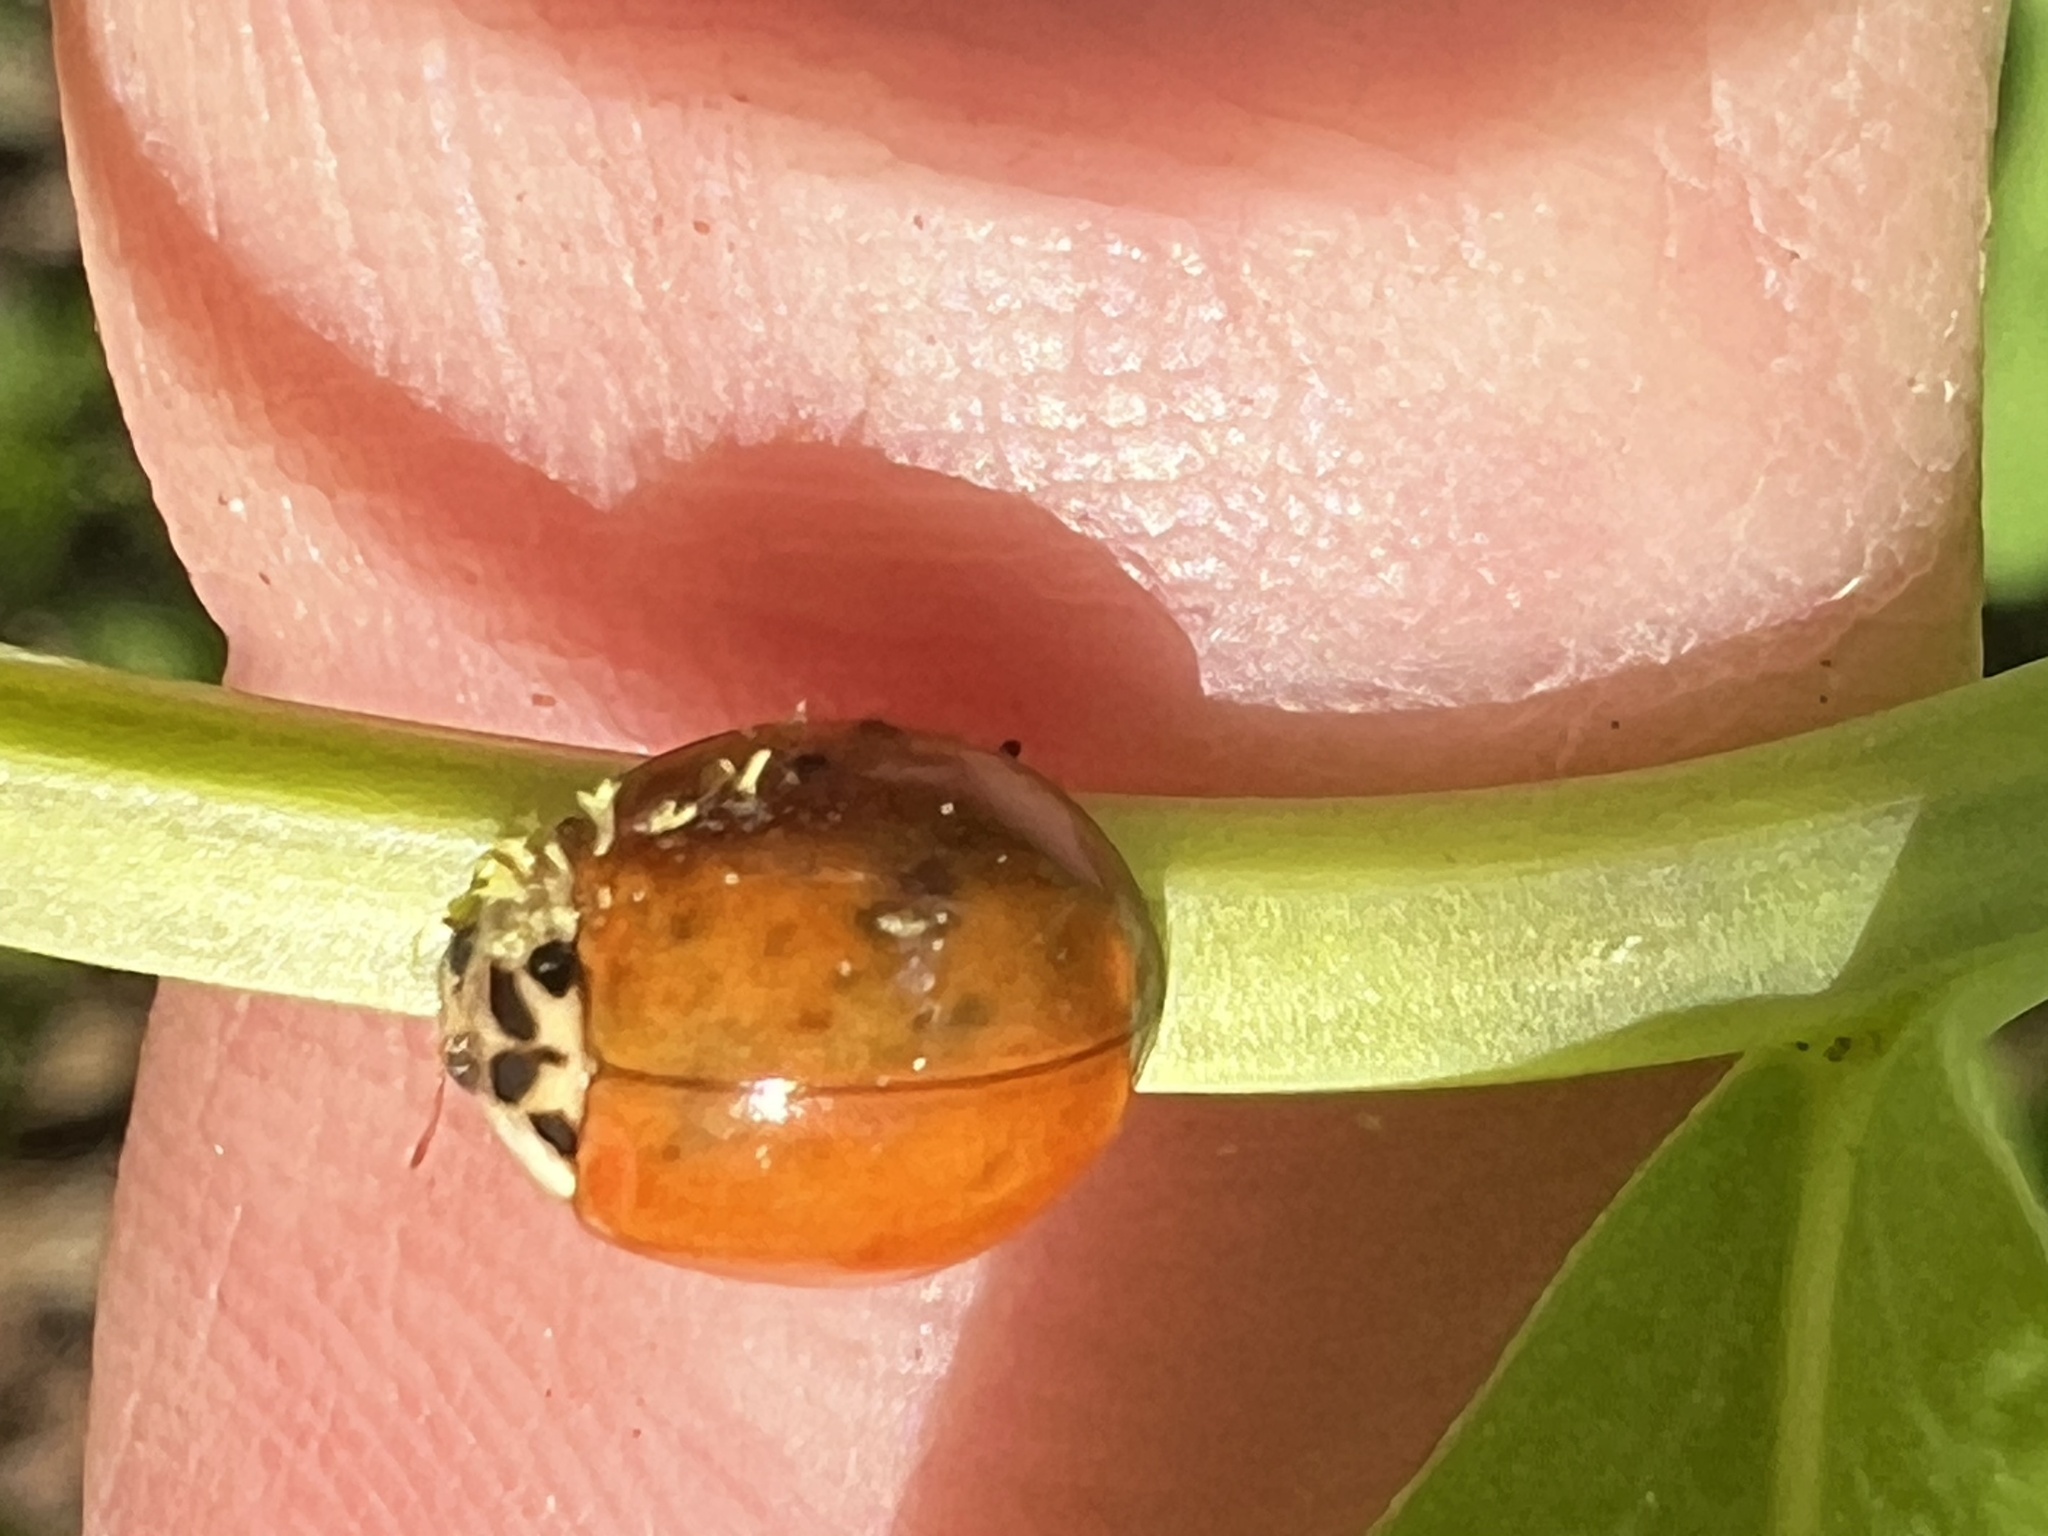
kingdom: Fungi
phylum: Ascomycota
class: Laboulbeniomycetes
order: Laboulbeniales
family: Laboulbeniaceae
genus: Hesperomyces
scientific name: Hesperomyces harmoniae
